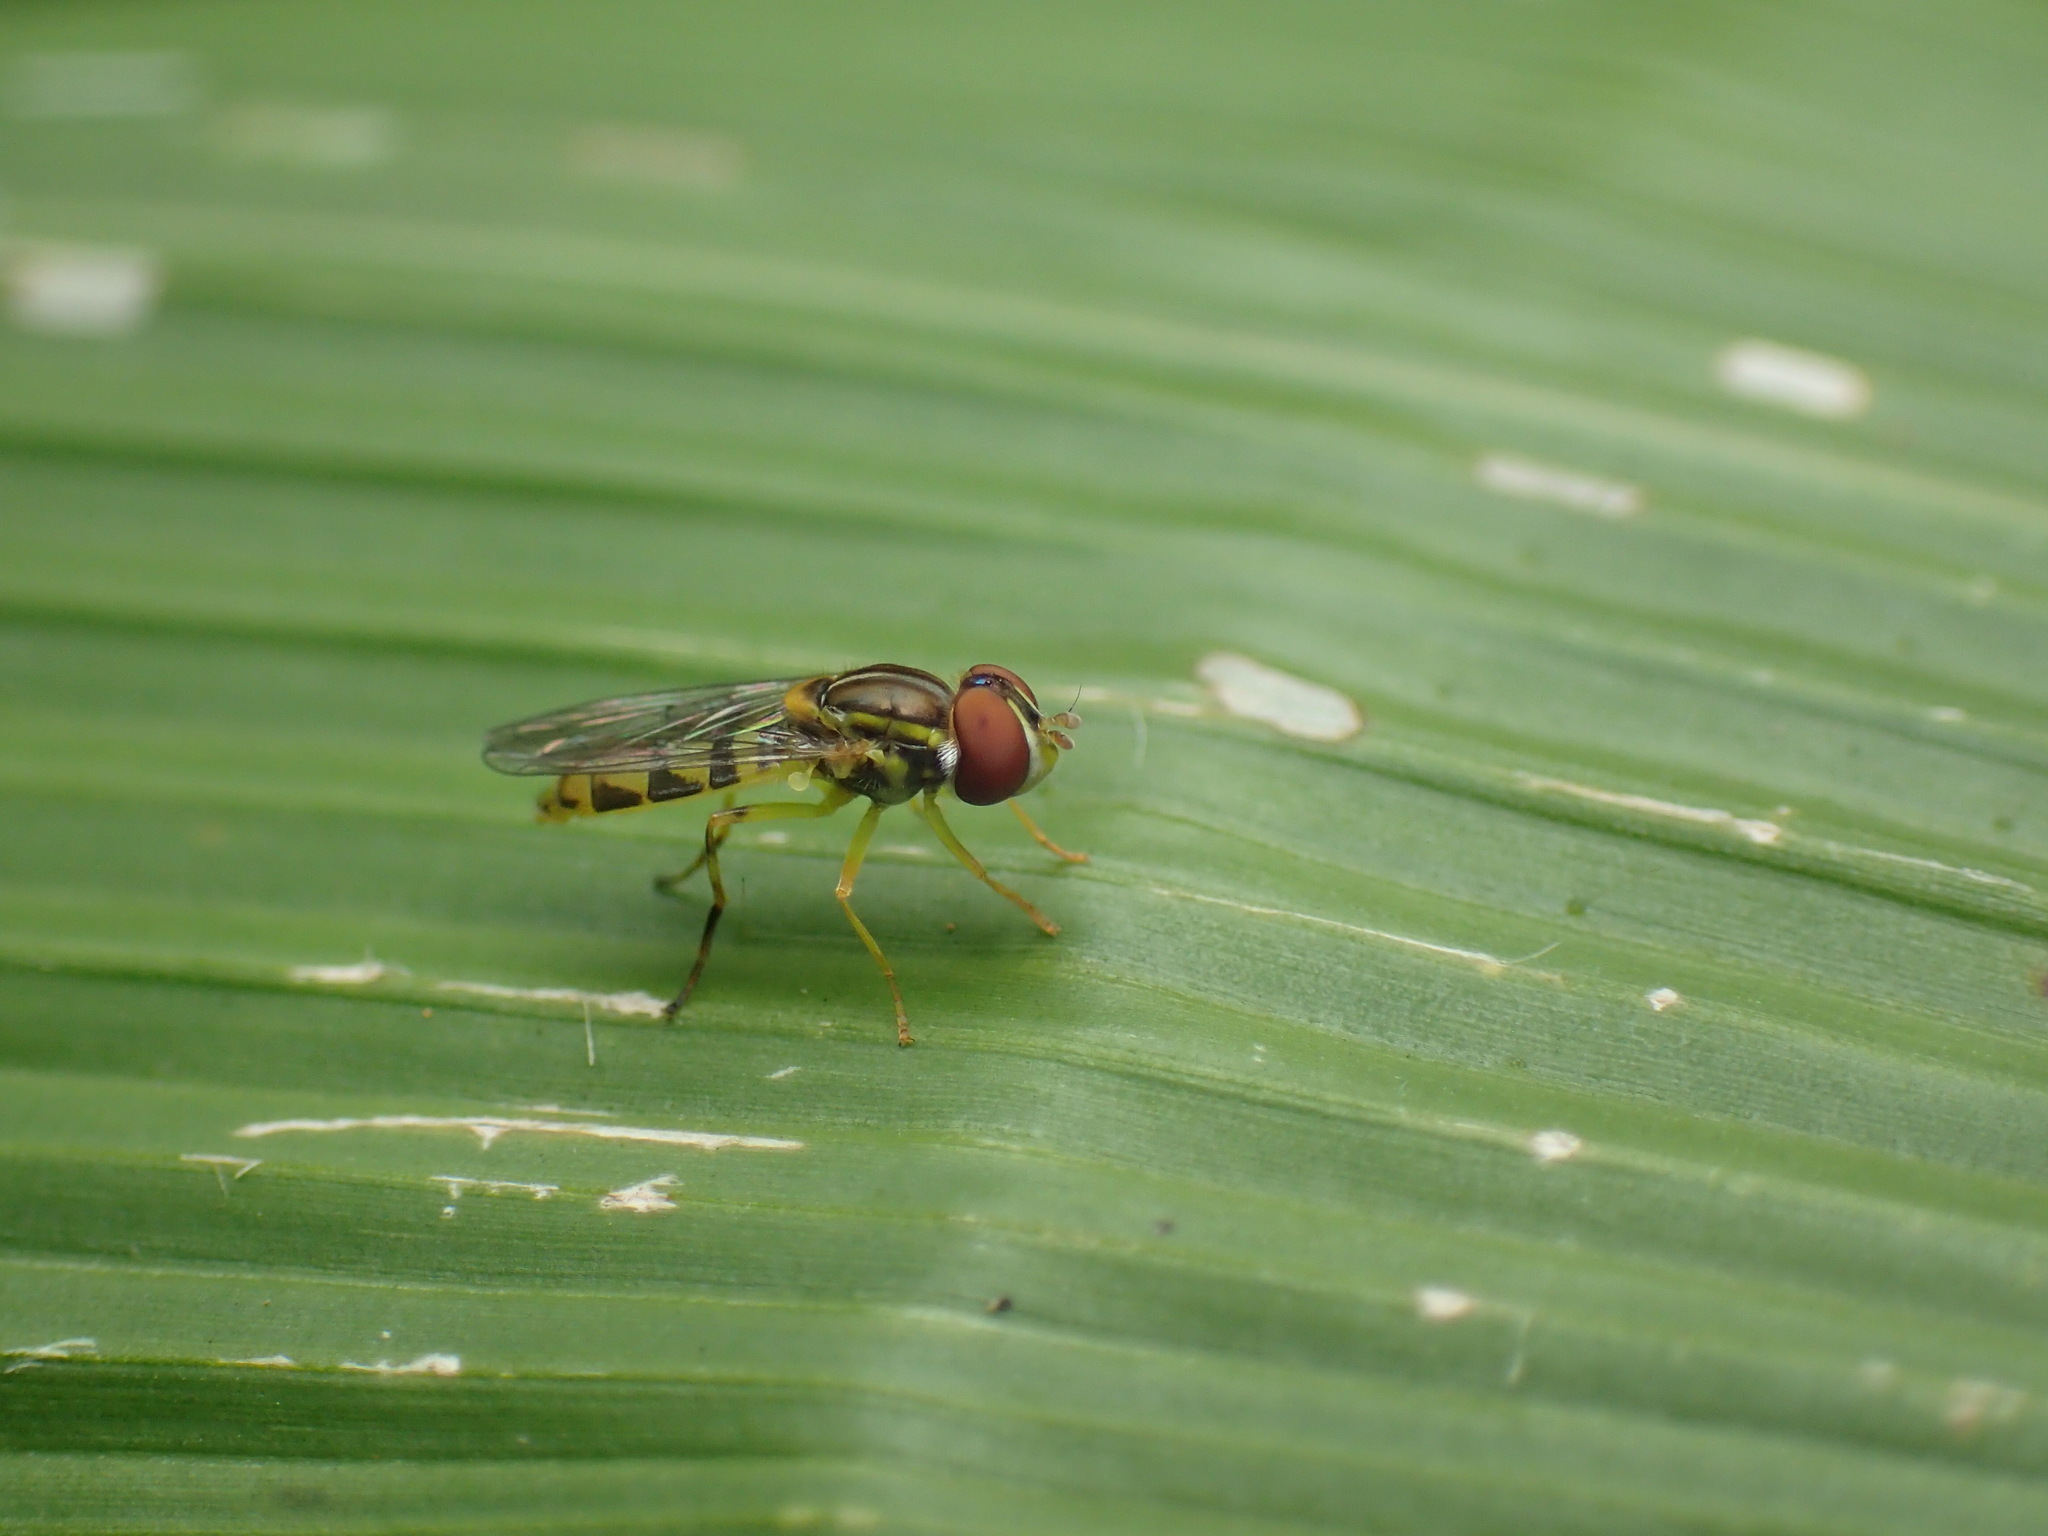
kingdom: Animalia
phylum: Arthropoda
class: Insecta
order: Diptera
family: Syrphidae
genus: Toxomerus
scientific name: Toxomerus floralis
